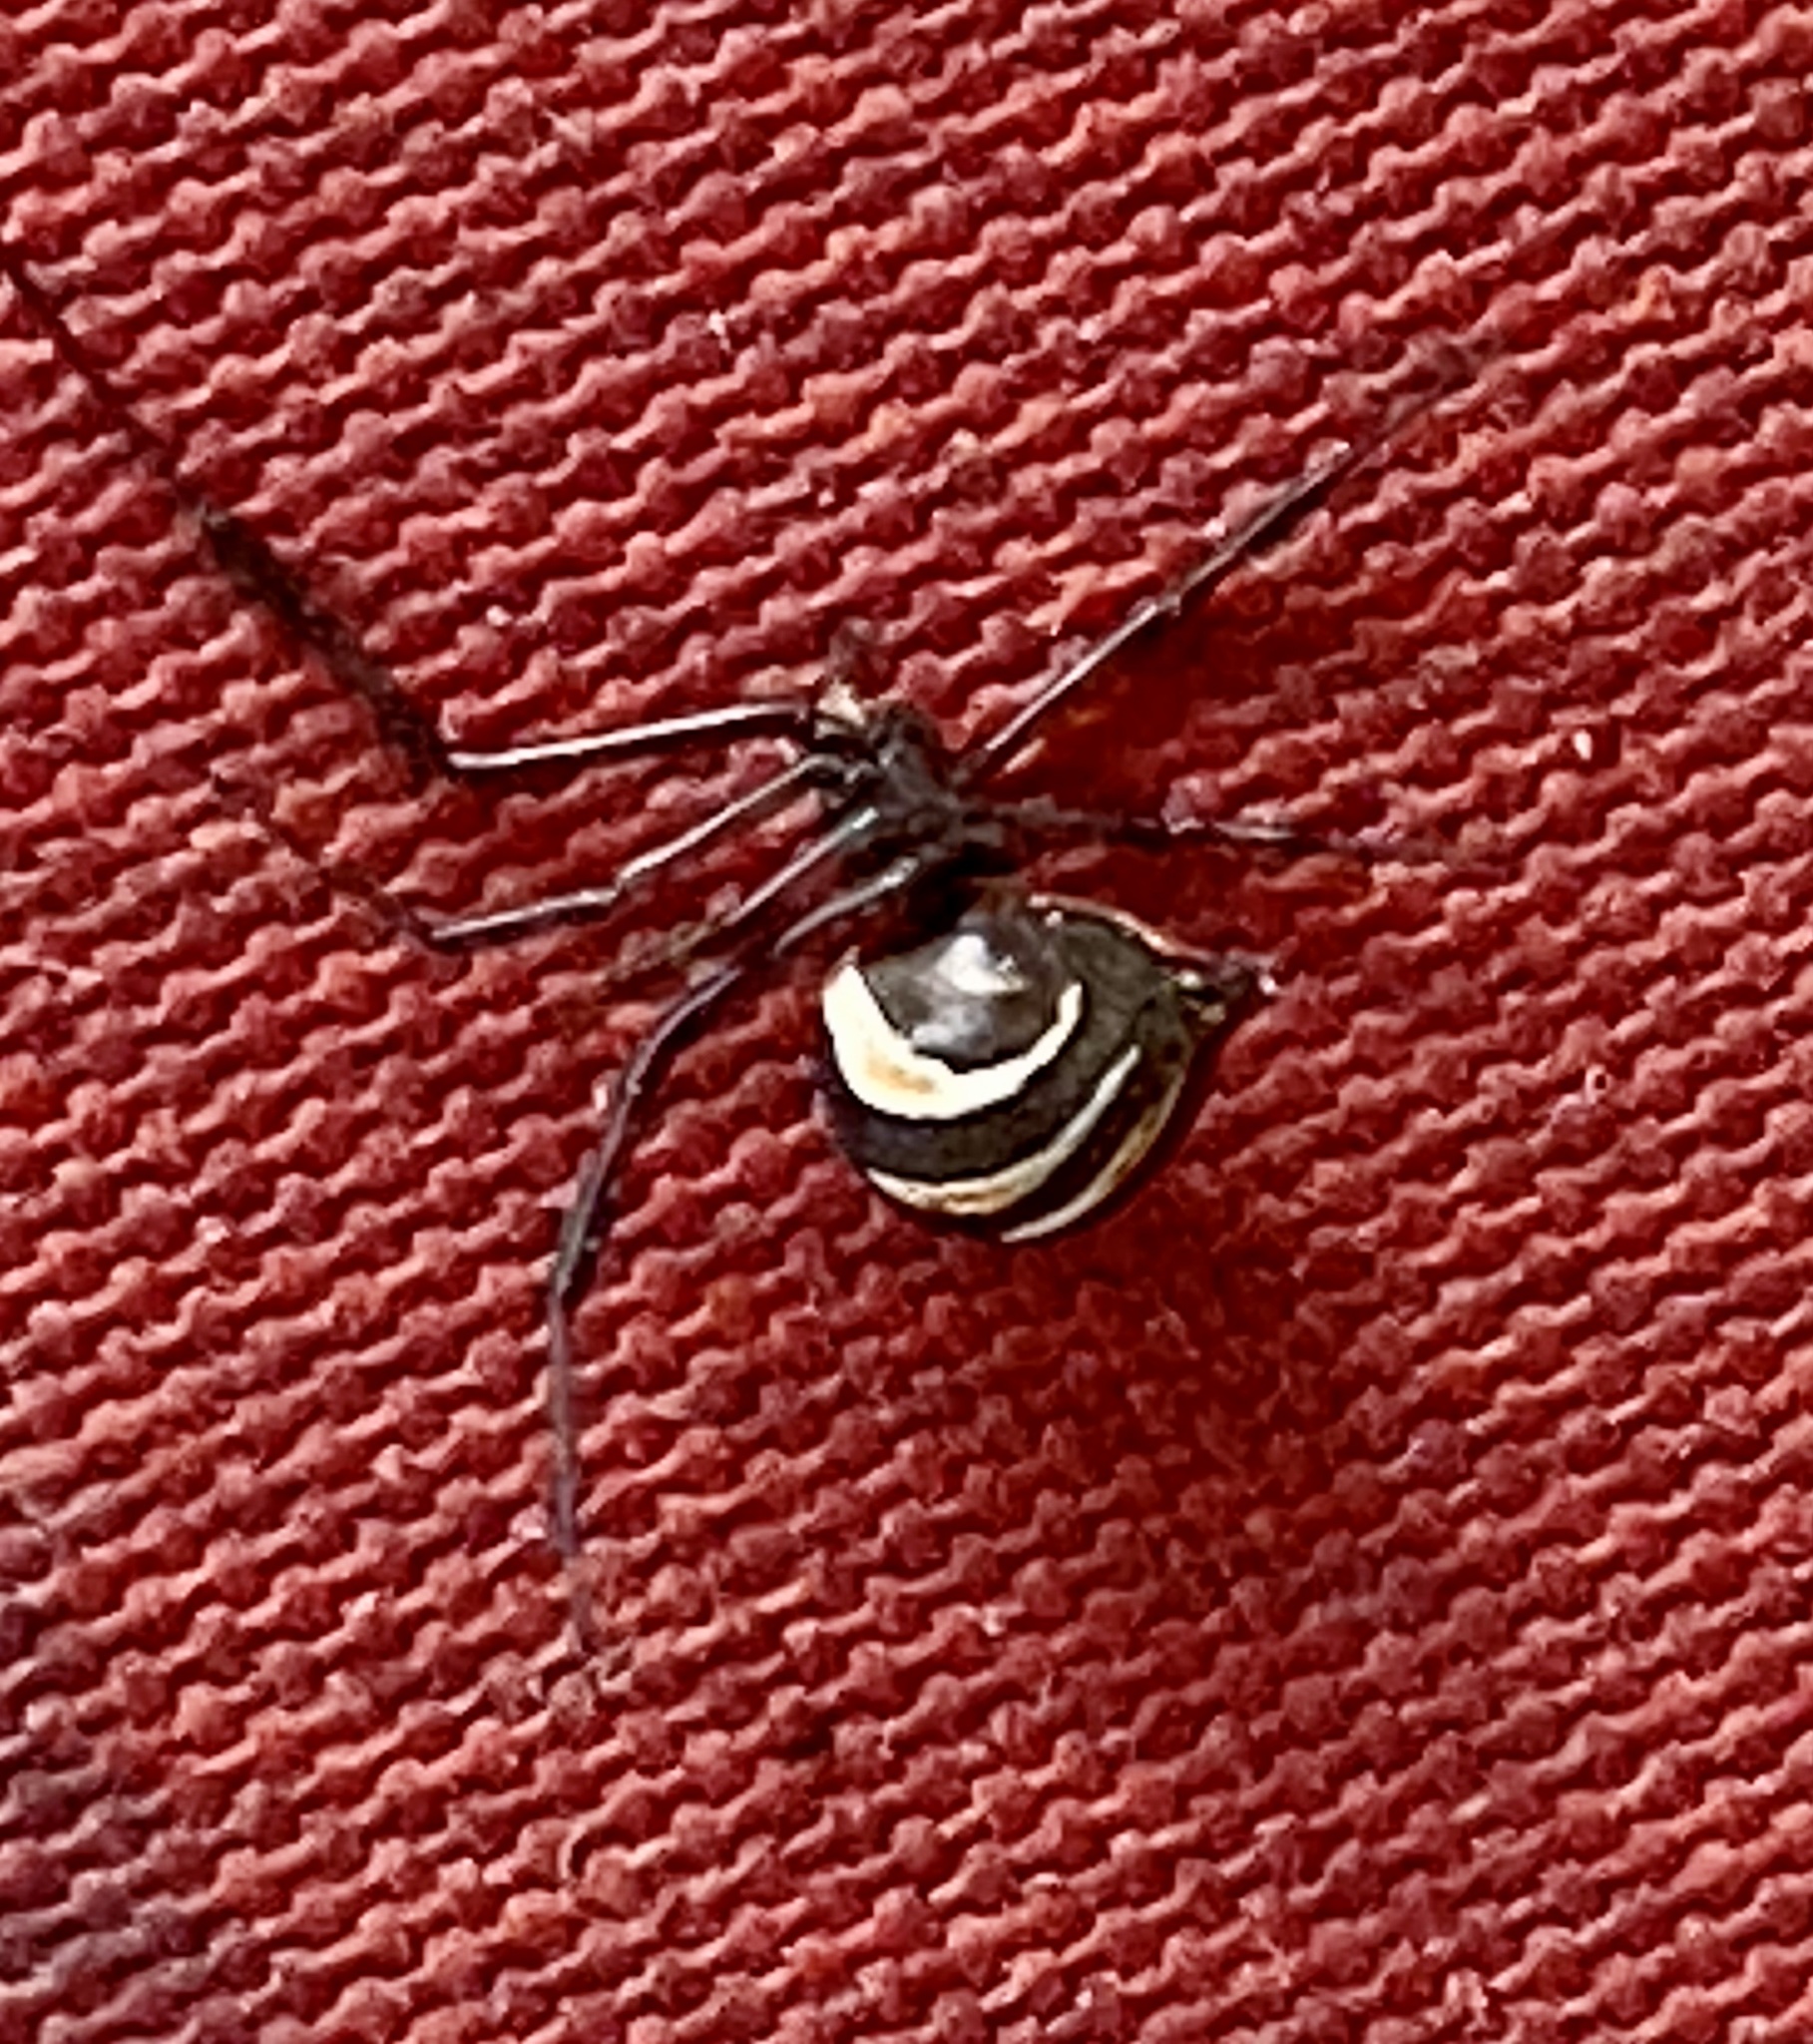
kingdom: Animalia
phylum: Arthropoda
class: Arachnida
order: Araneae
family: Theridiidae
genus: Latrodectus
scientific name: Latrodectus hesperus
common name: Western black widow
